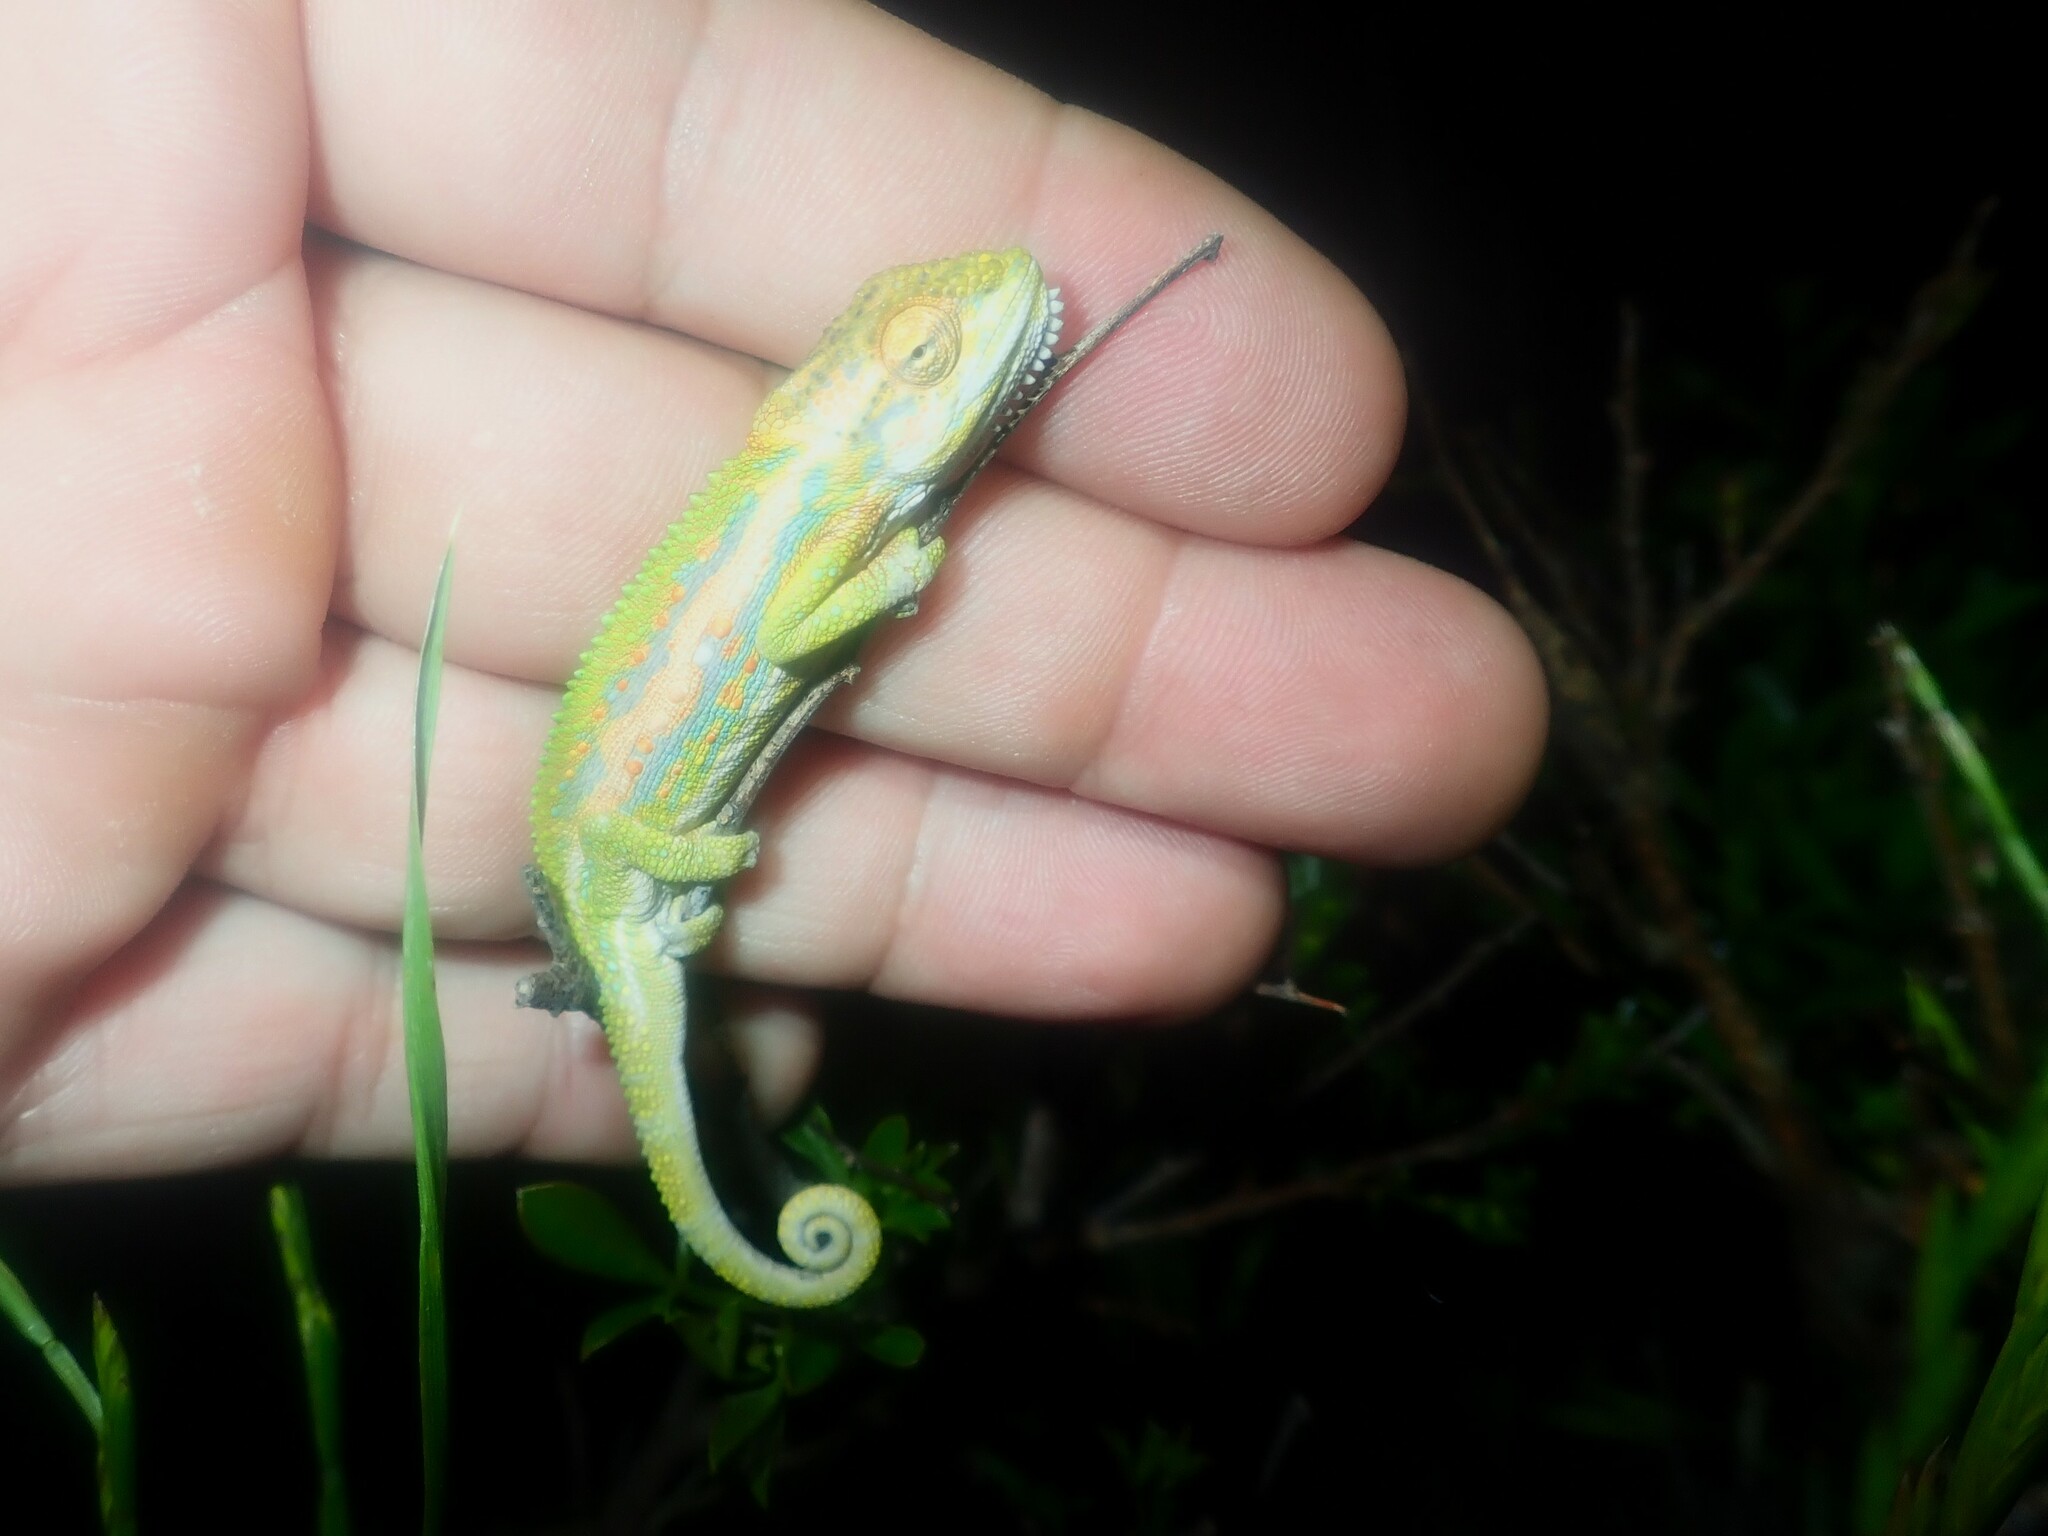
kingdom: Animalia
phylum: Chordata
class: Squamata
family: Chamaeleonidae
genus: Bradypodion
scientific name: Bradypodion pumilum
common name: Cape dwarf chameleon
